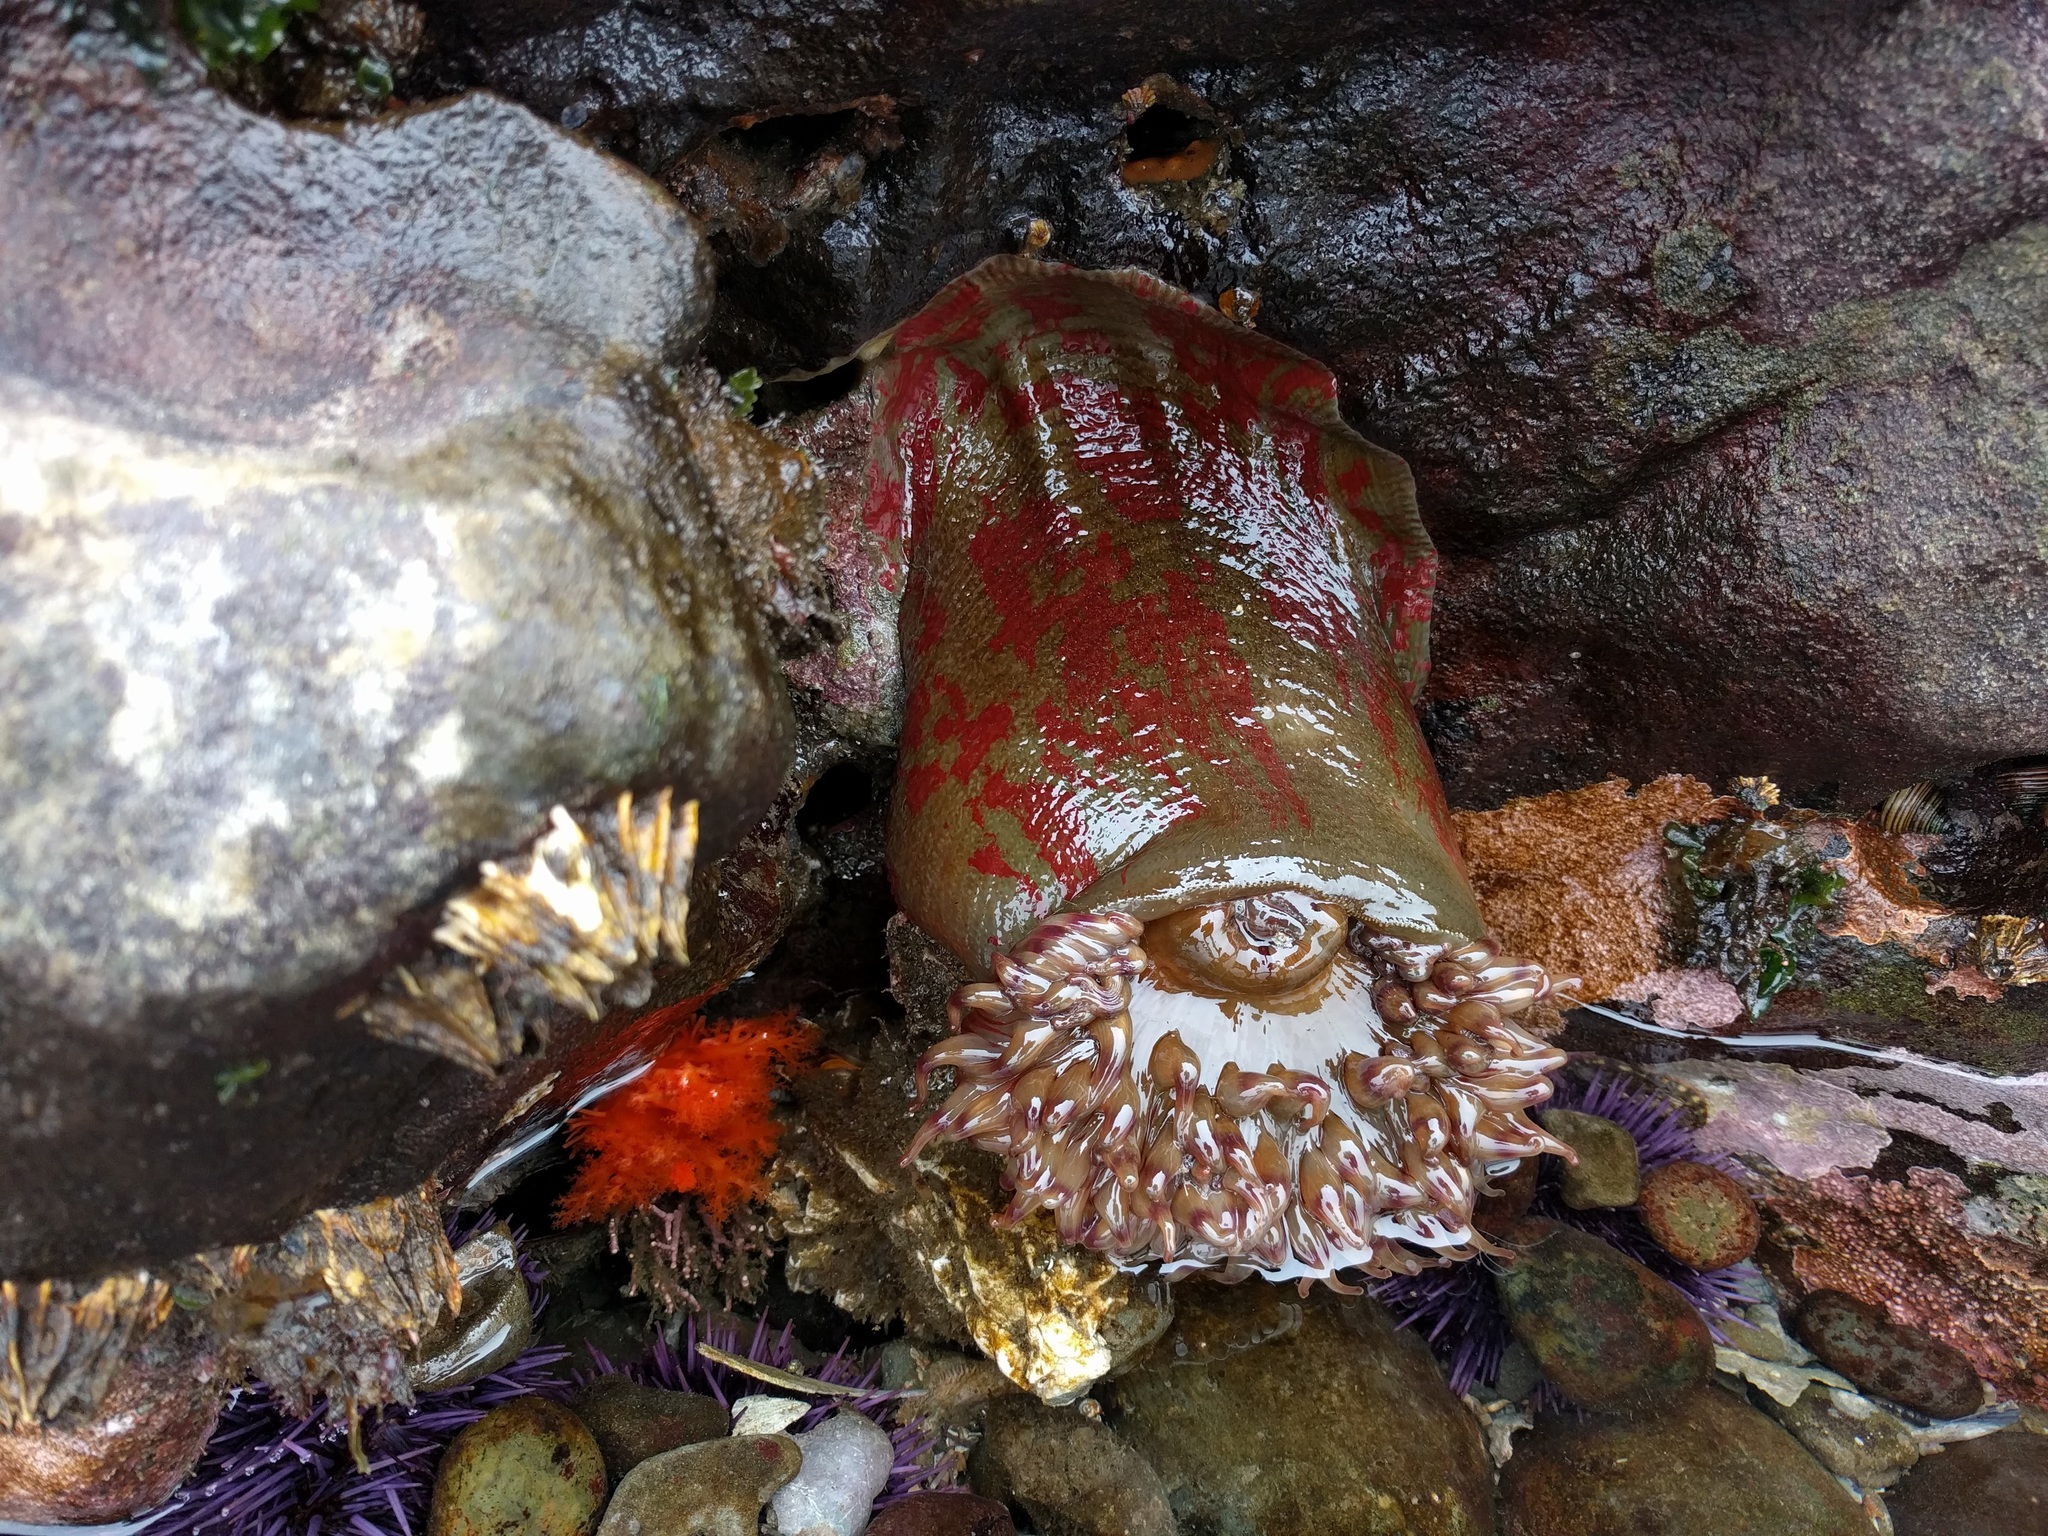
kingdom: Animalia
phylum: Arthropoda
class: Maxillopoda
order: Sessilia
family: Archaeobalanidae
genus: Semibalanus
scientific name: Semibalanus cariosus
